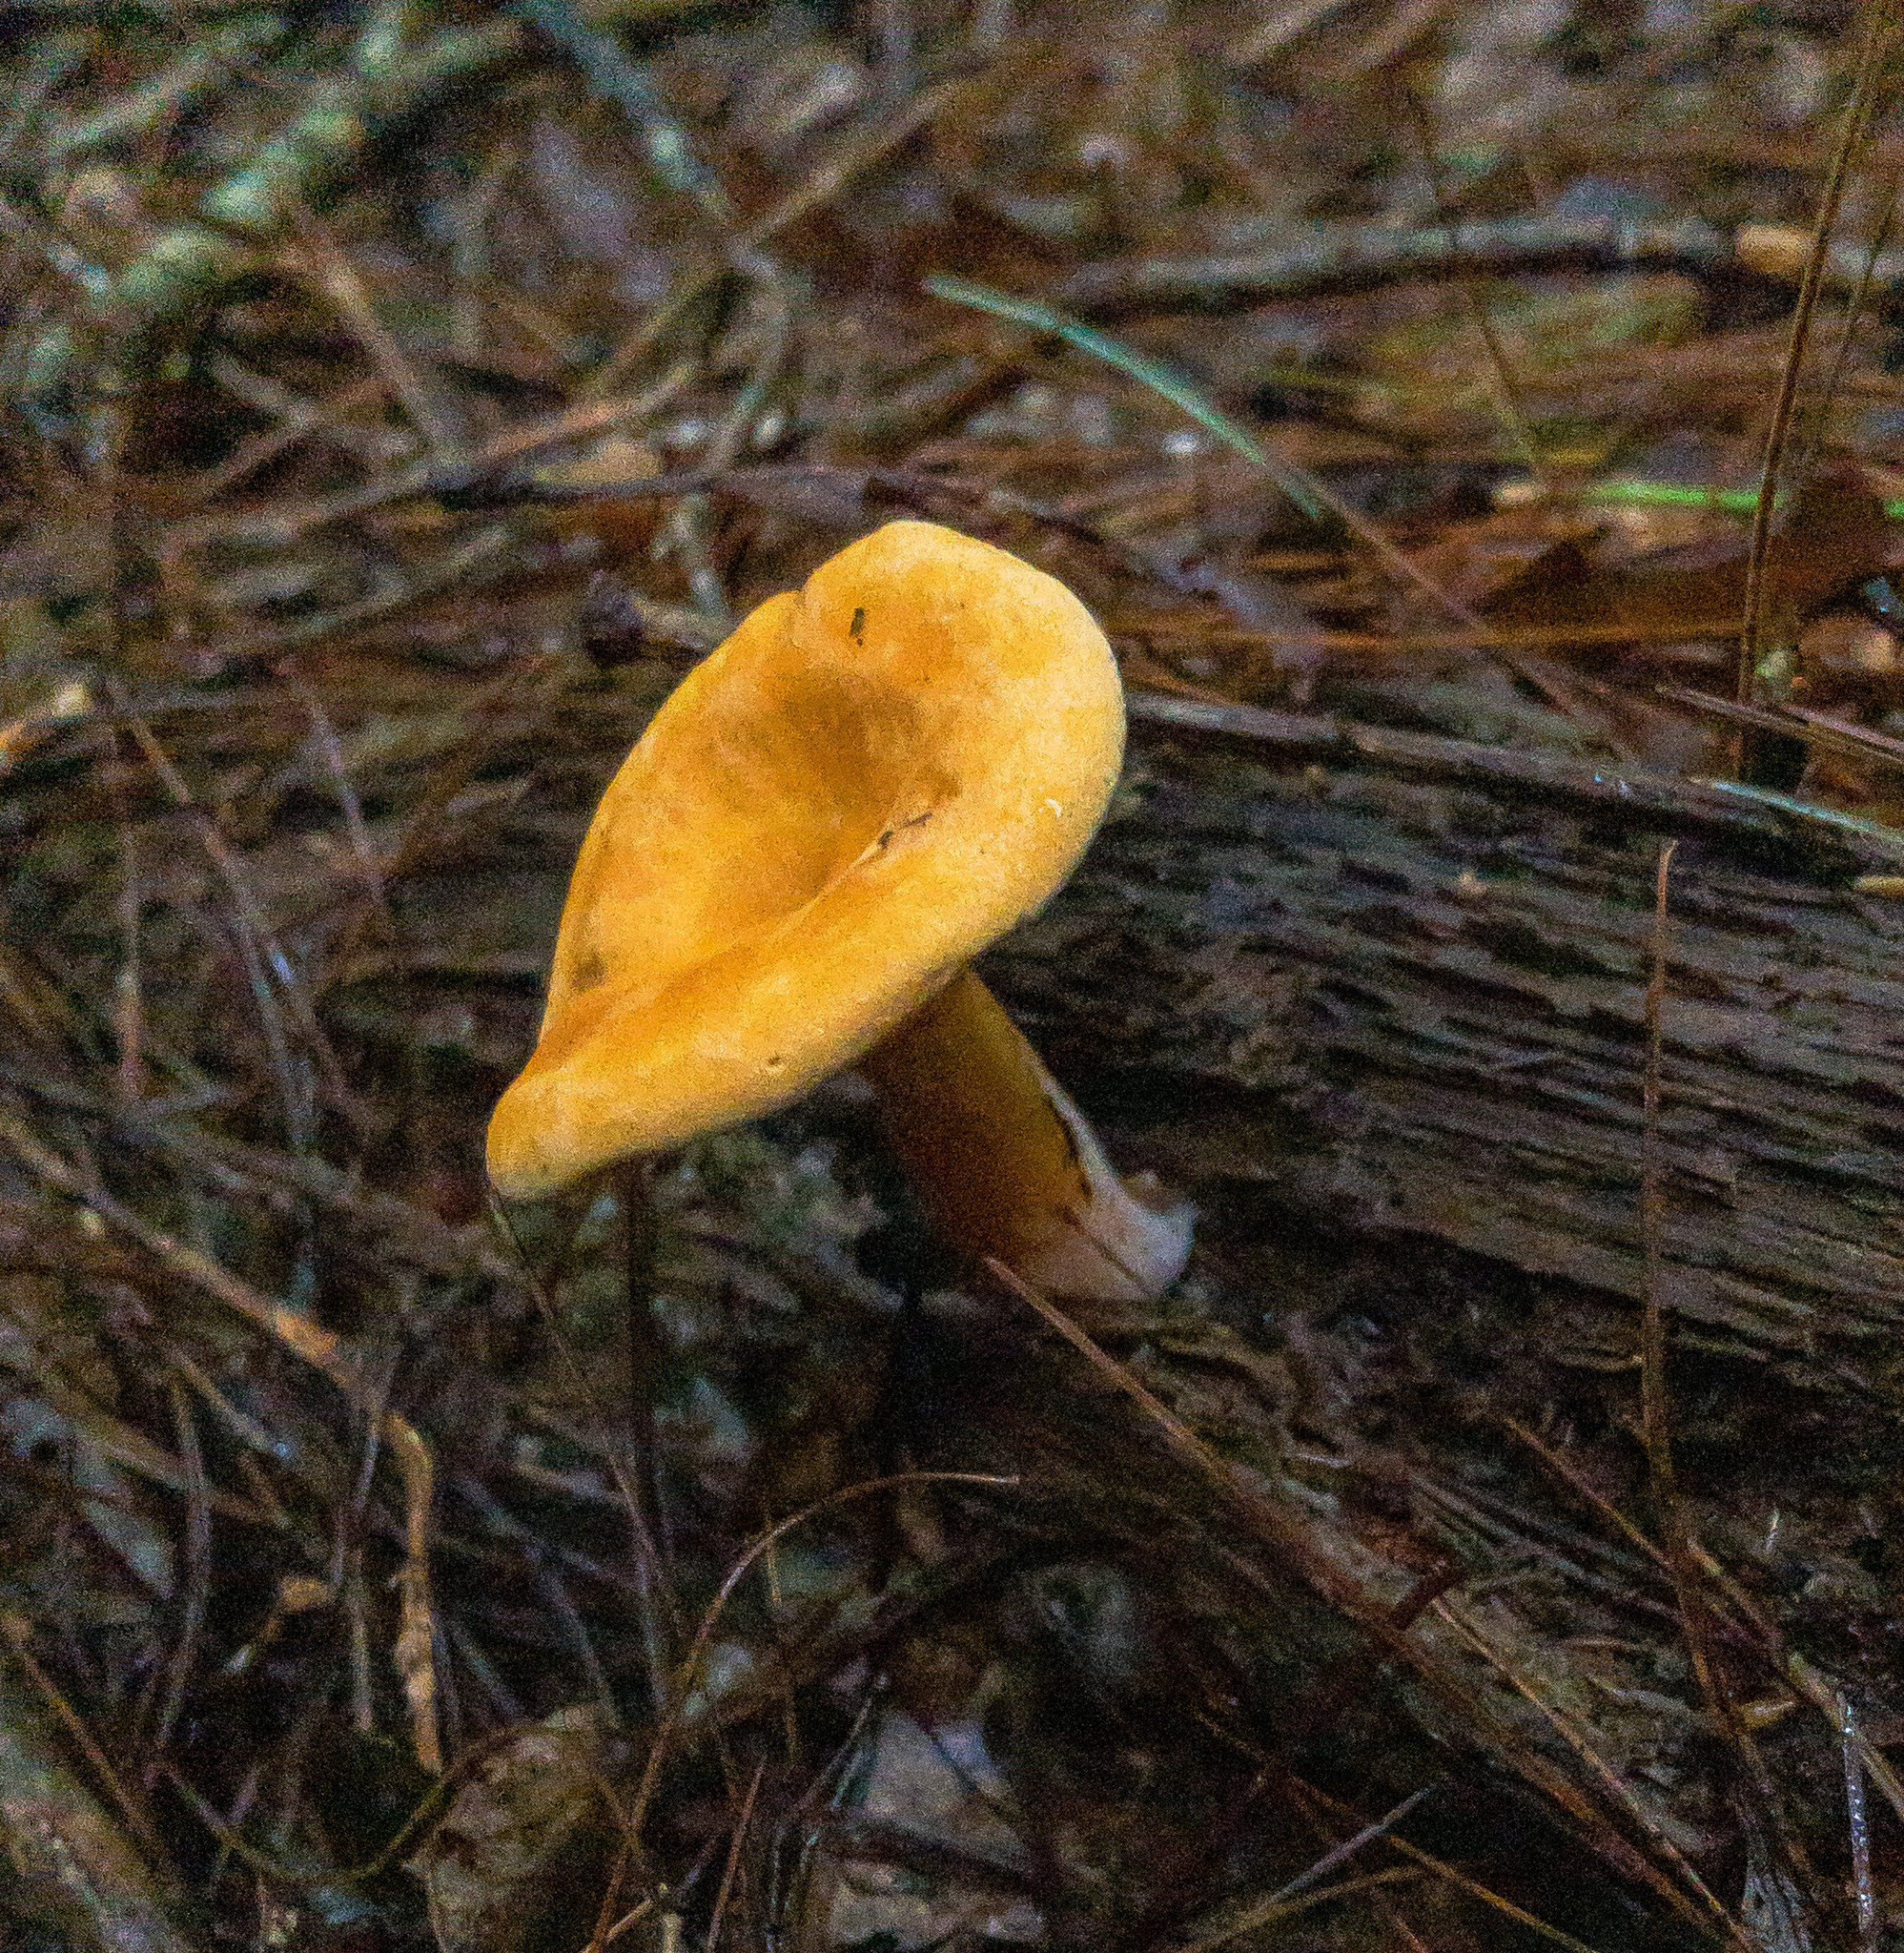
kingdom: Fungi
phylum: Basidiomycota
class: Agaricomycetes
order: Boletales
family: Hygrophoropsidaceae
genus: Hygrophoropsis
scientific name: Hygrophoropsis aurantiaca
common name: False chanterelle
